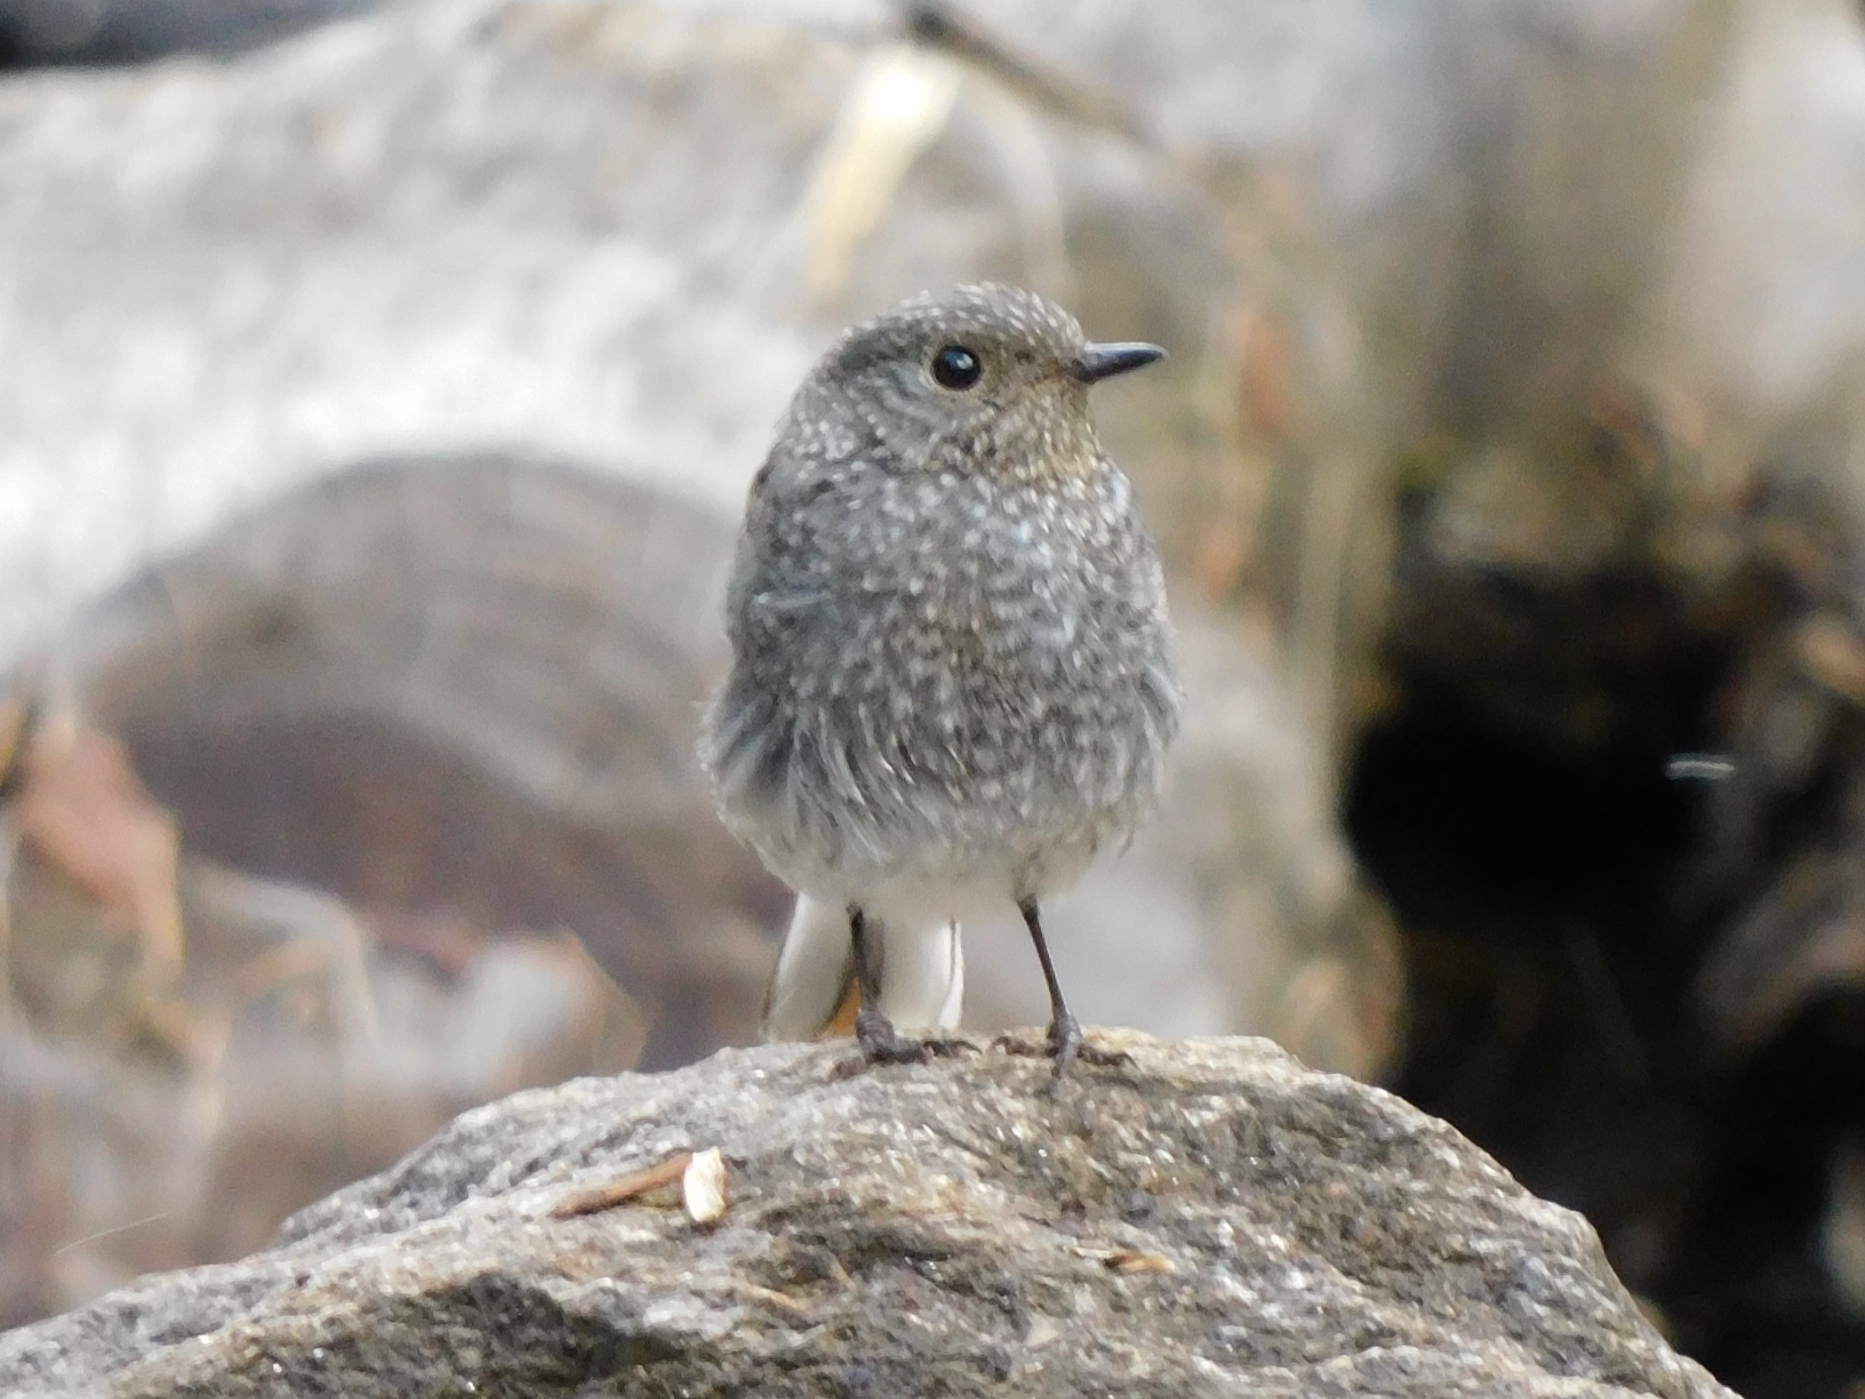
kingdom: Animalia
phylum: Chordata
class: Aves
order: Passeriformes
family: Muscicapidae
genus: Phoenicurus
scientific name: Phoenicurus fuliginosus
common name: Plumbeous water redstart
